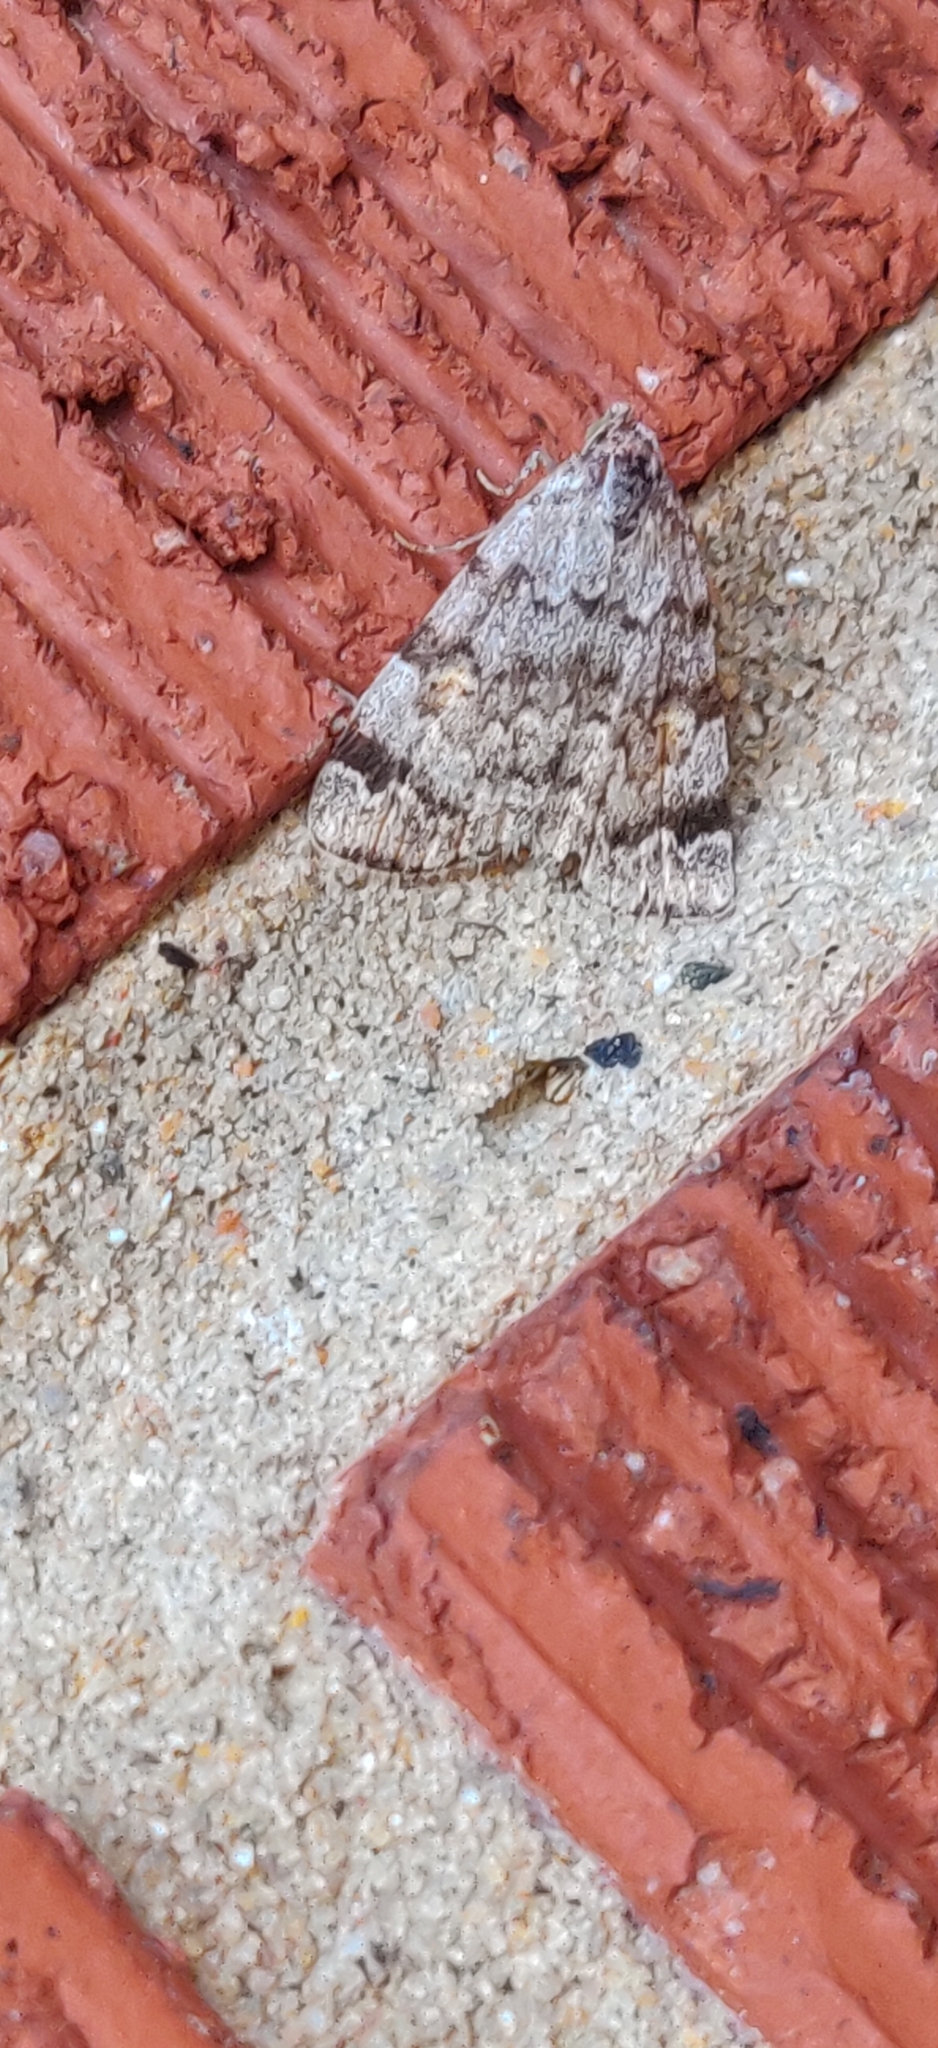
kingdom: Animalia
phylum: Arthropoda
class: Insecta
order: Lepidoptera
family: Erebidae
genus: Idia
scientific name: Idia americalis
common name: American idia moth
